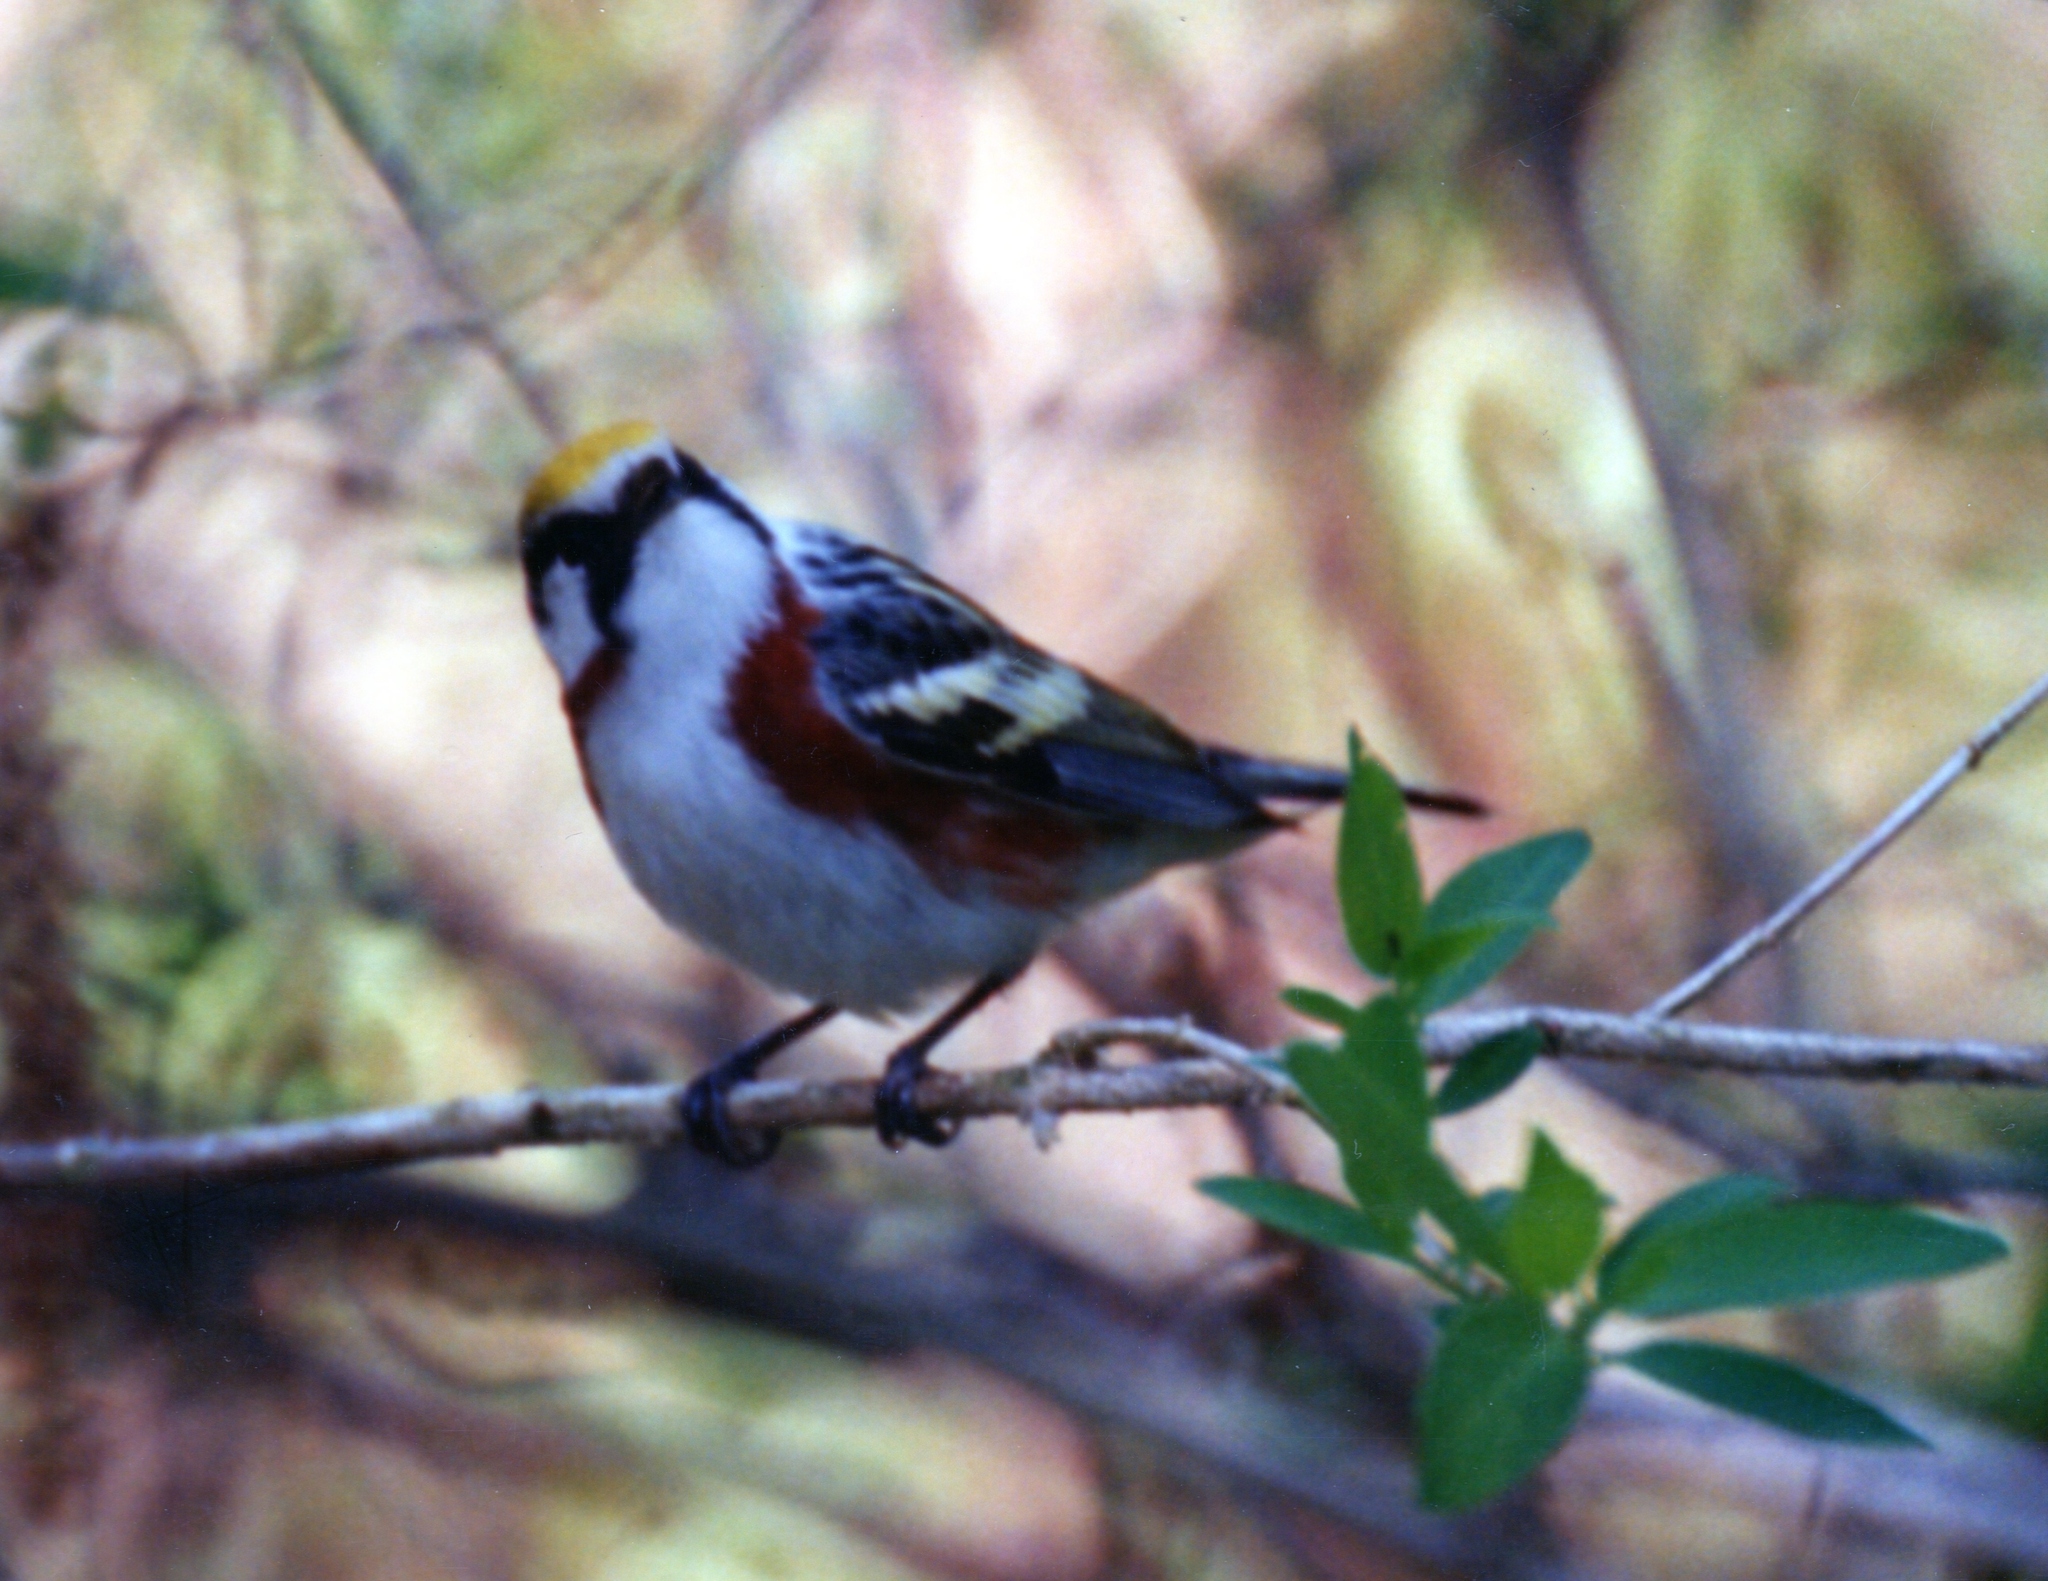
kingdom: Animalia
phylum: Chordata
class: Aves
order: Passeriformes
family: Parulidae
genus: Setophaga
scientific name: Setophaga pensylvanica
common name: Chestnut-sided warbler
